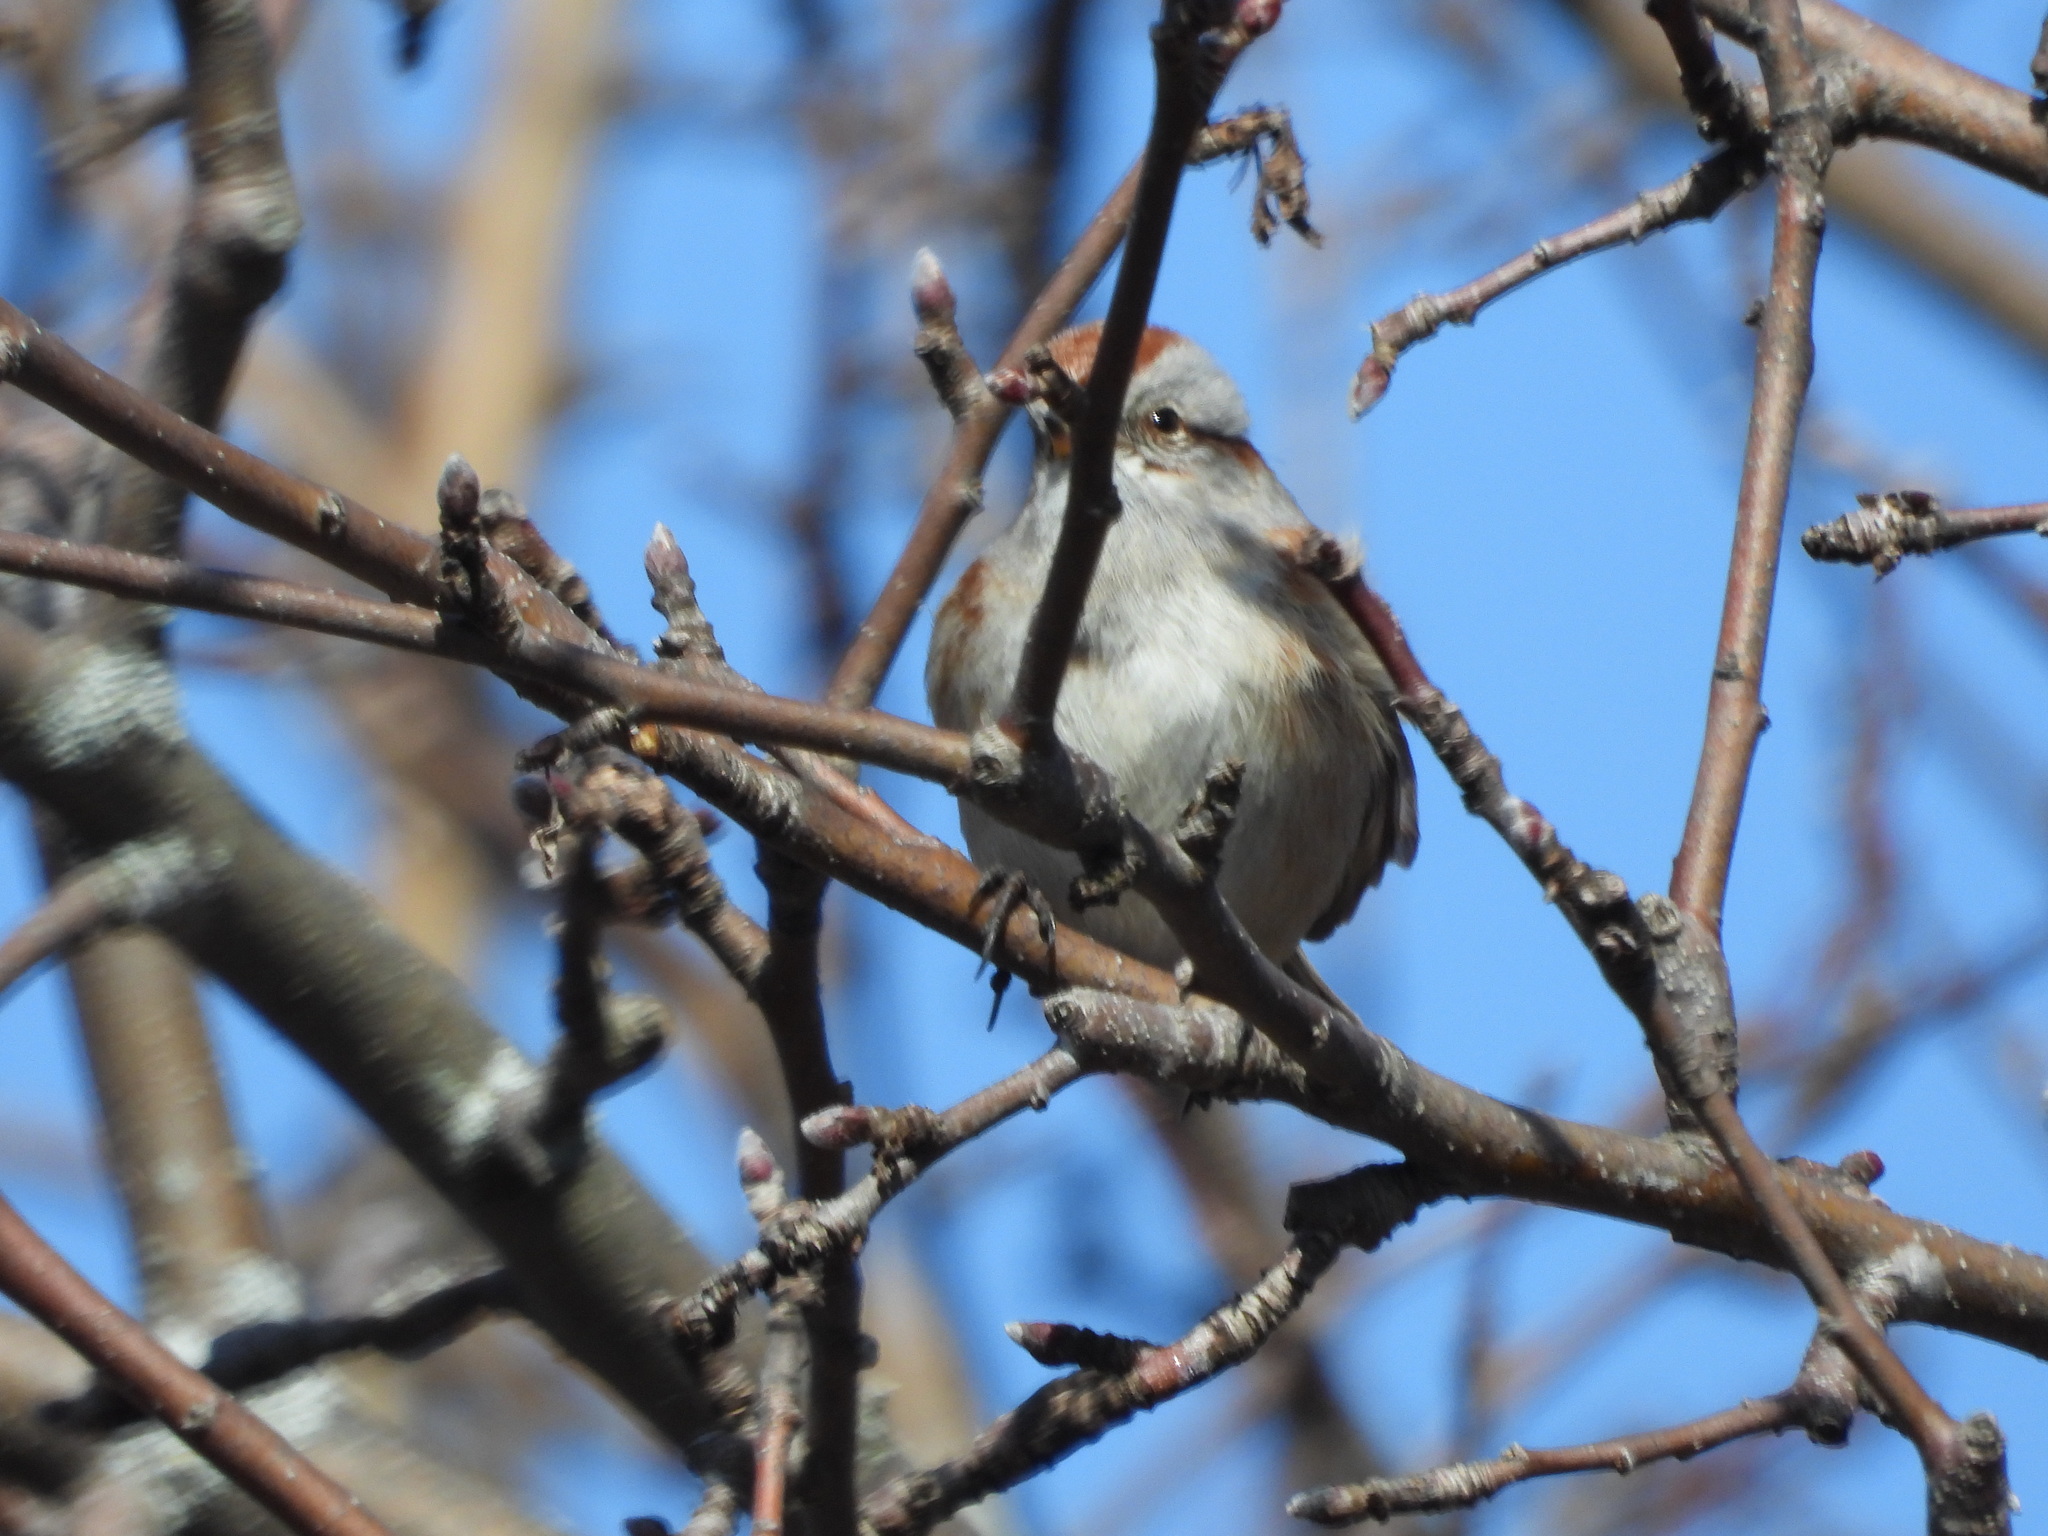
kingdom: Animalia
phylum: Chordata
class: Aves
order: Passeriformes
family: Passerellidae
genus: Spizelloides
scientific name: Spizelloides arborea
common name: American tree sparrow
